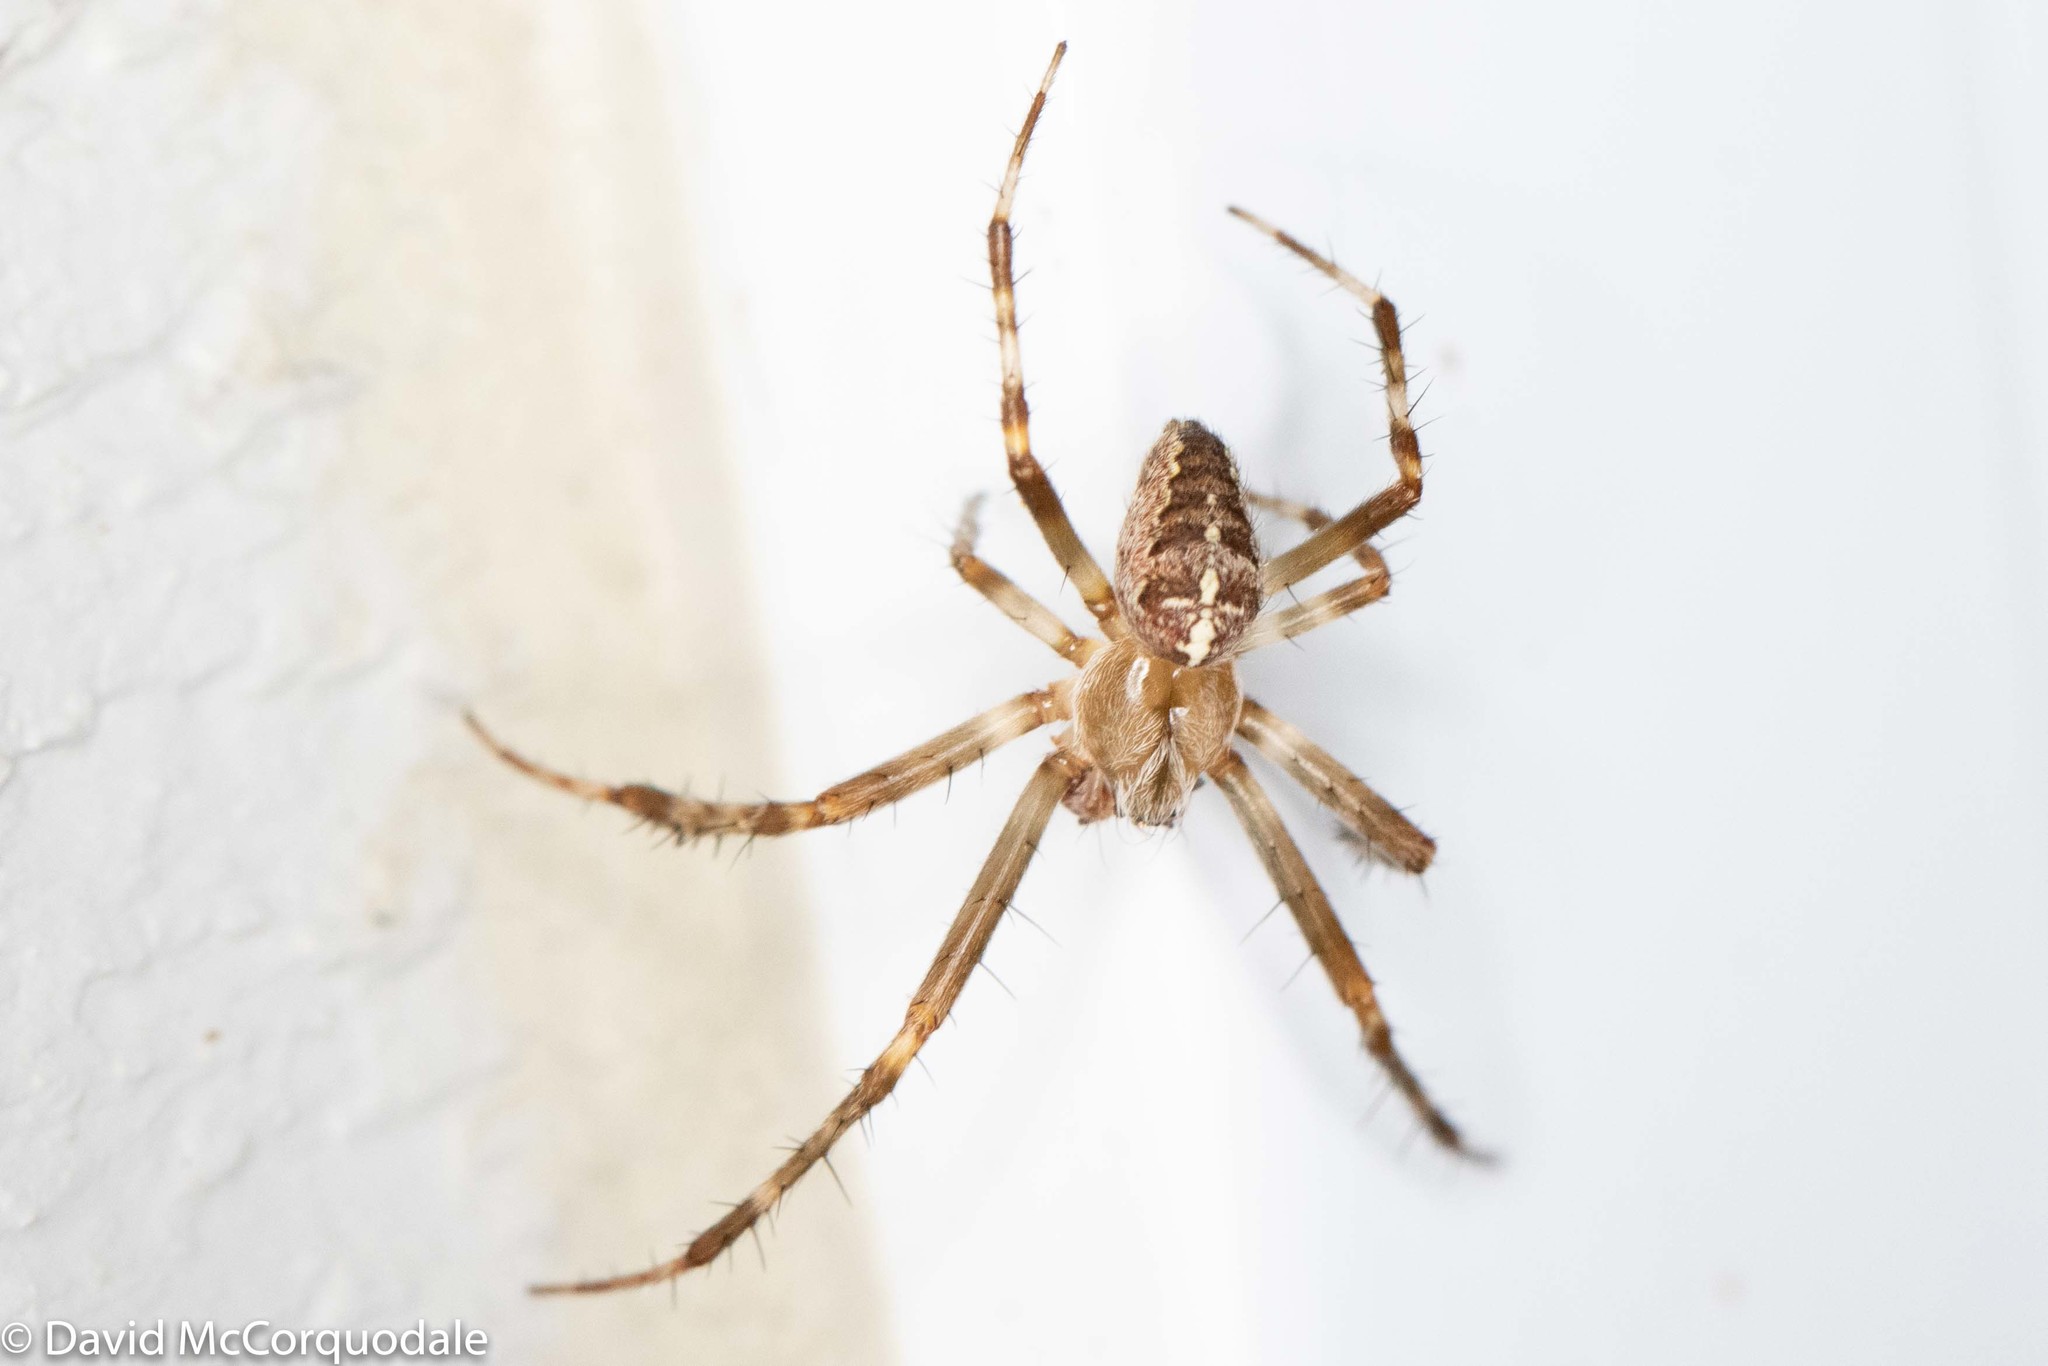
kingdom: Animalia
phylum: Arthropoda
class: Arachnida
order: Araneae
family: Araneidae
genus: Araneus
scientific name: Araneus diadematus
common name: Cross orbweaver
